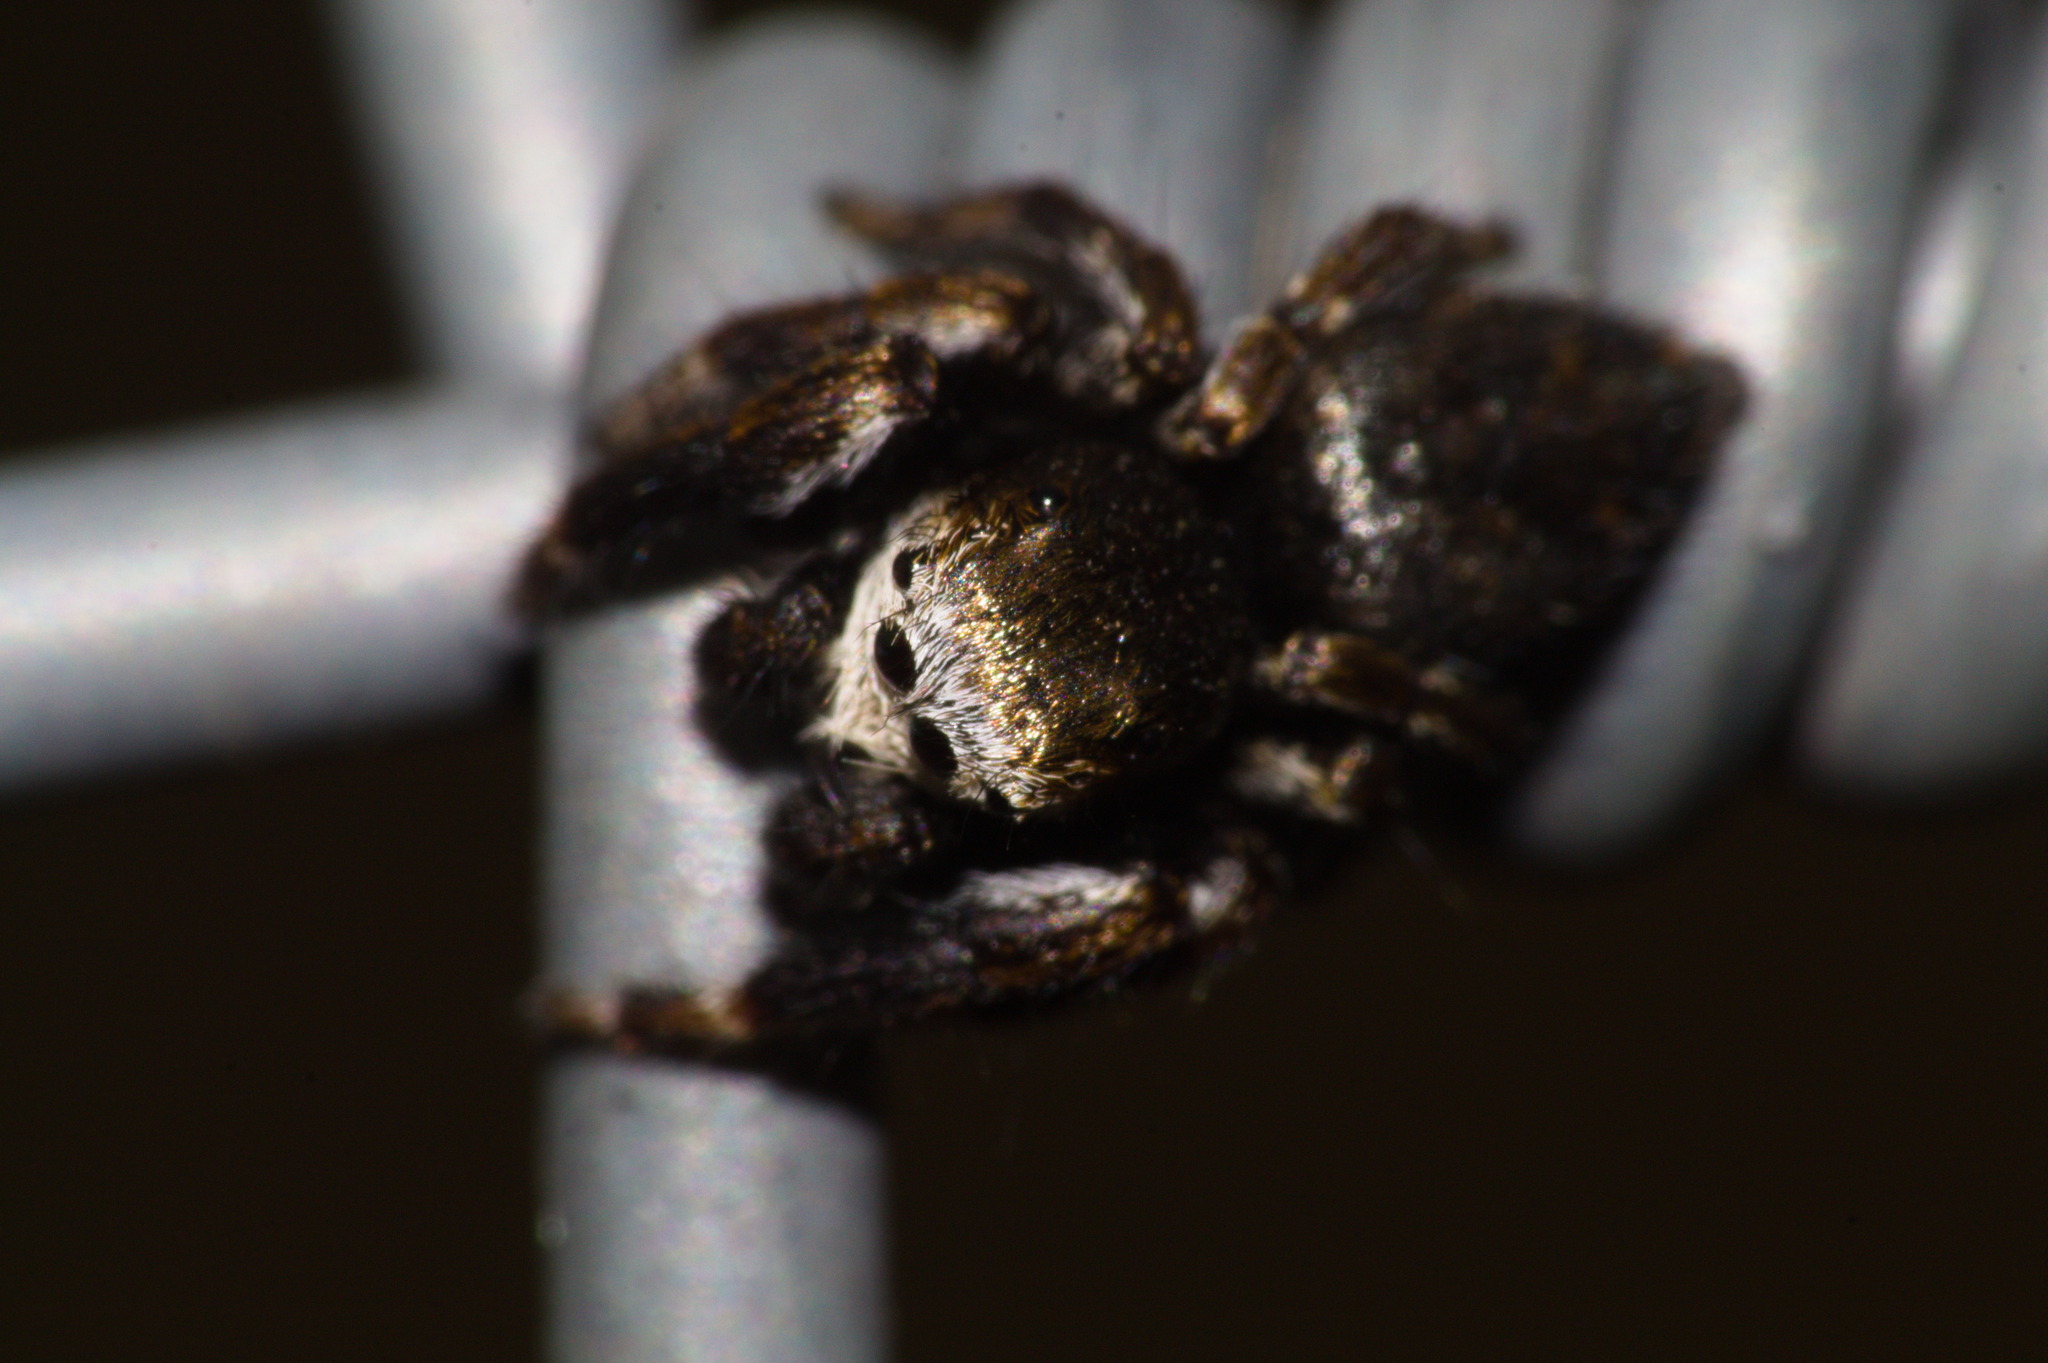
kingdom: Animalia
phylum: Arthropoda
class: Arachnida
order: Araneae
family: Salticidae
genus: Evarcha
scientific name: Evarcha arcuata
